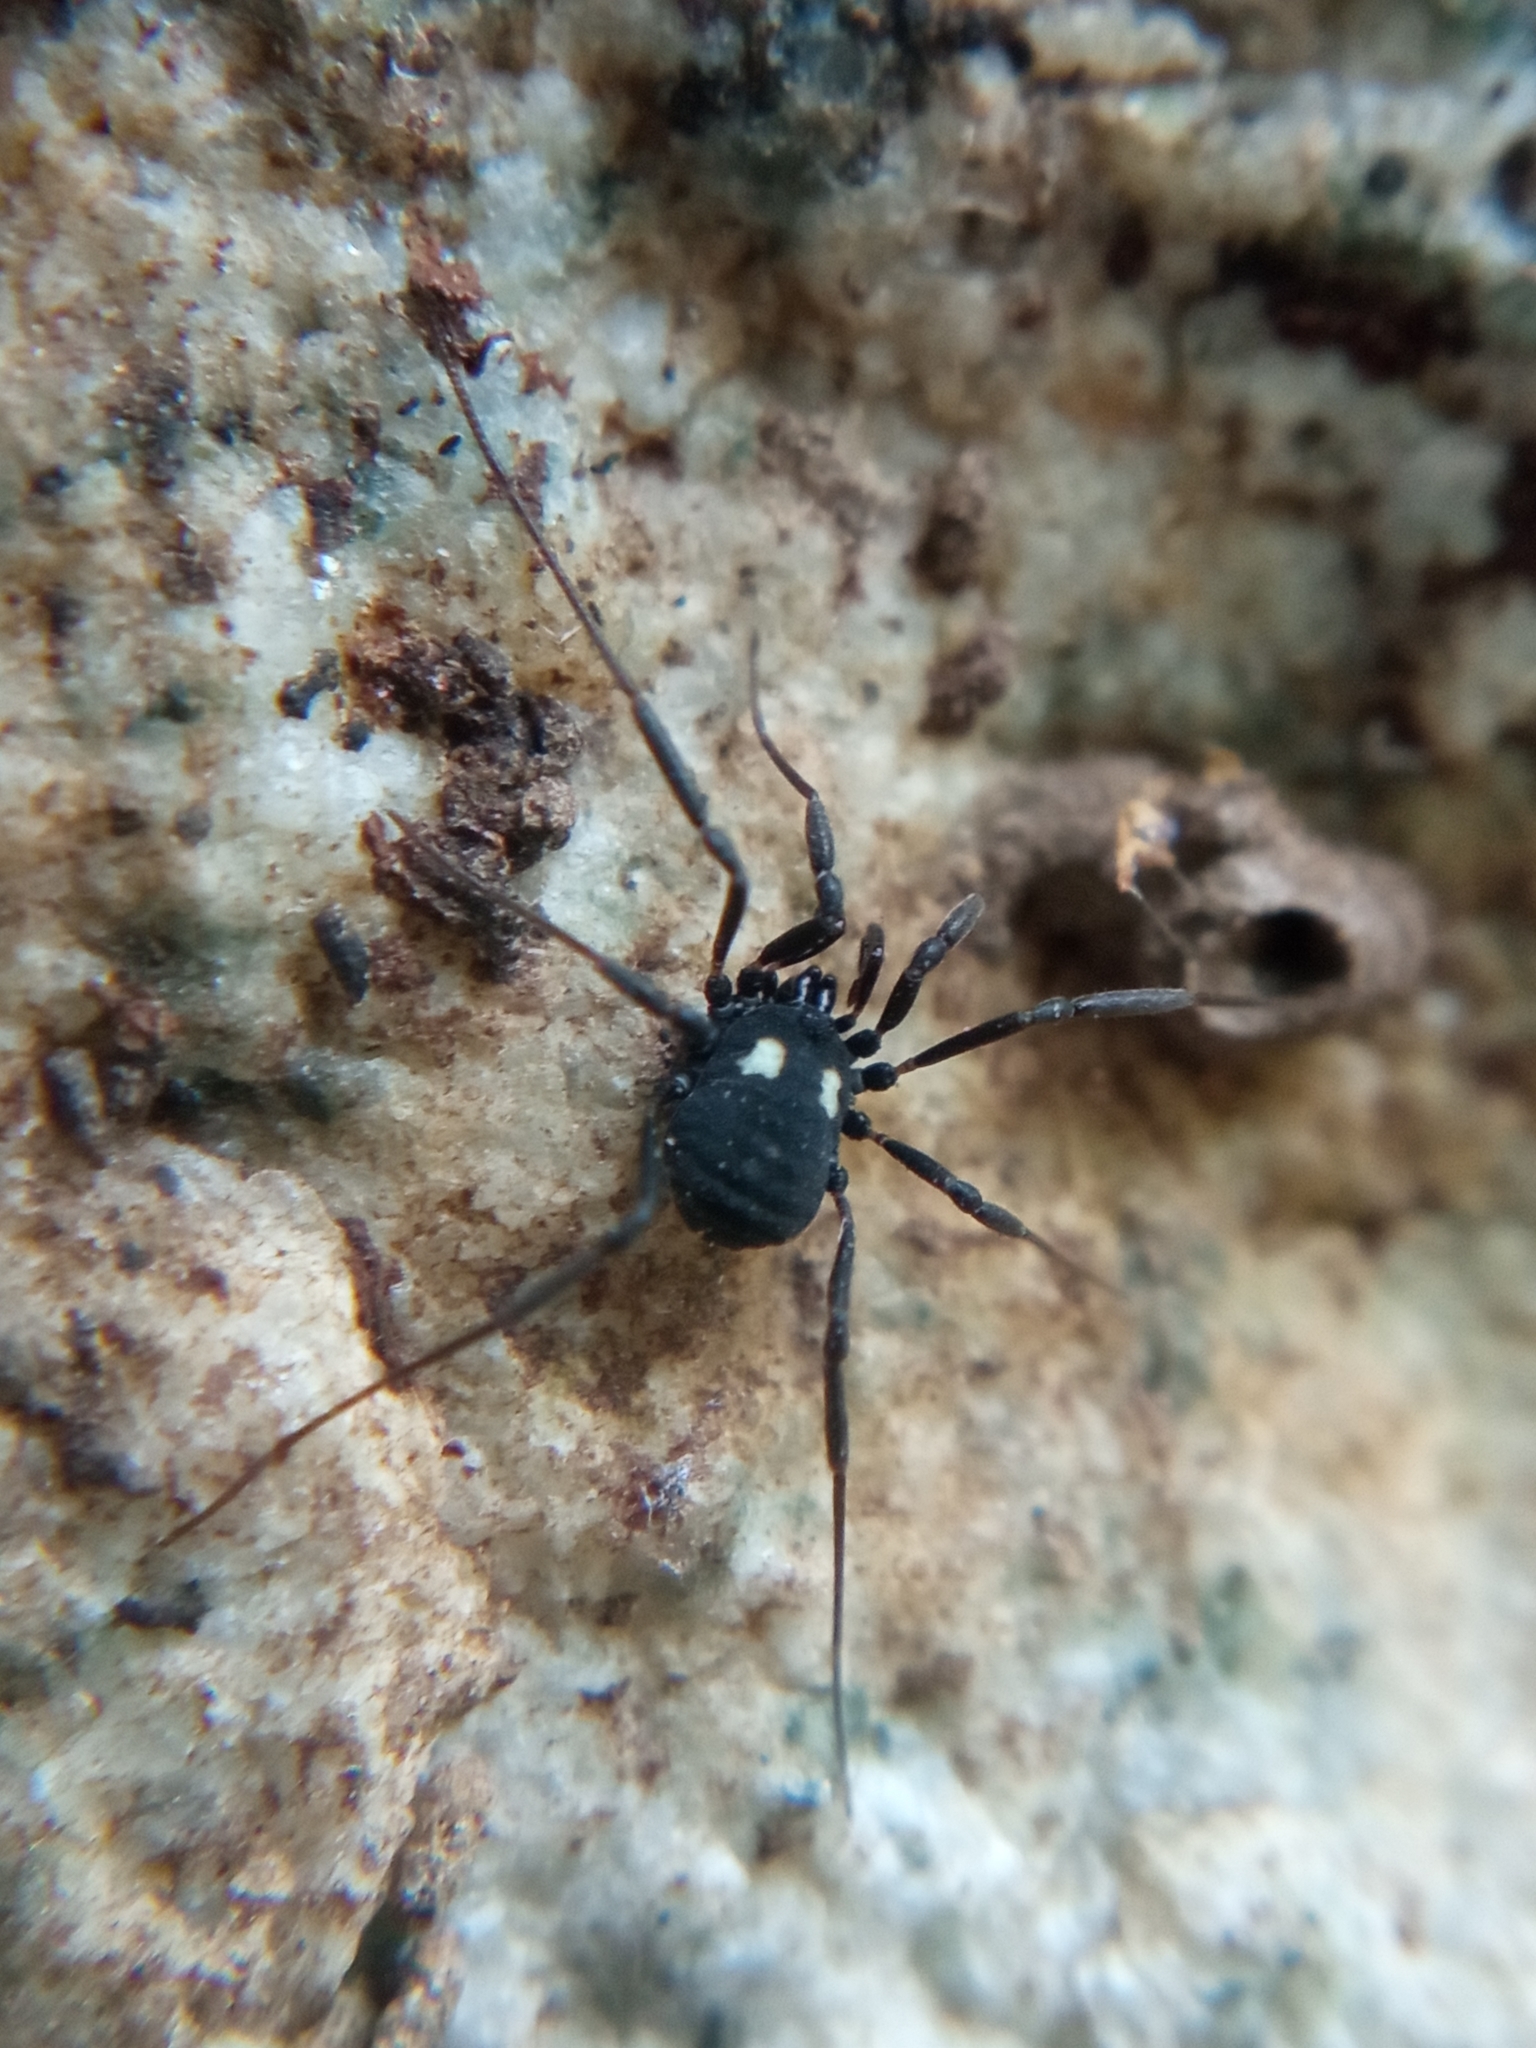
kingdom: Animalia
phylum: Arthropoda
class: Arachnida
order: Opiliones
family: Nemastomatidae
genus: Nemastoma
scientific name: Nemastoma lugubre
